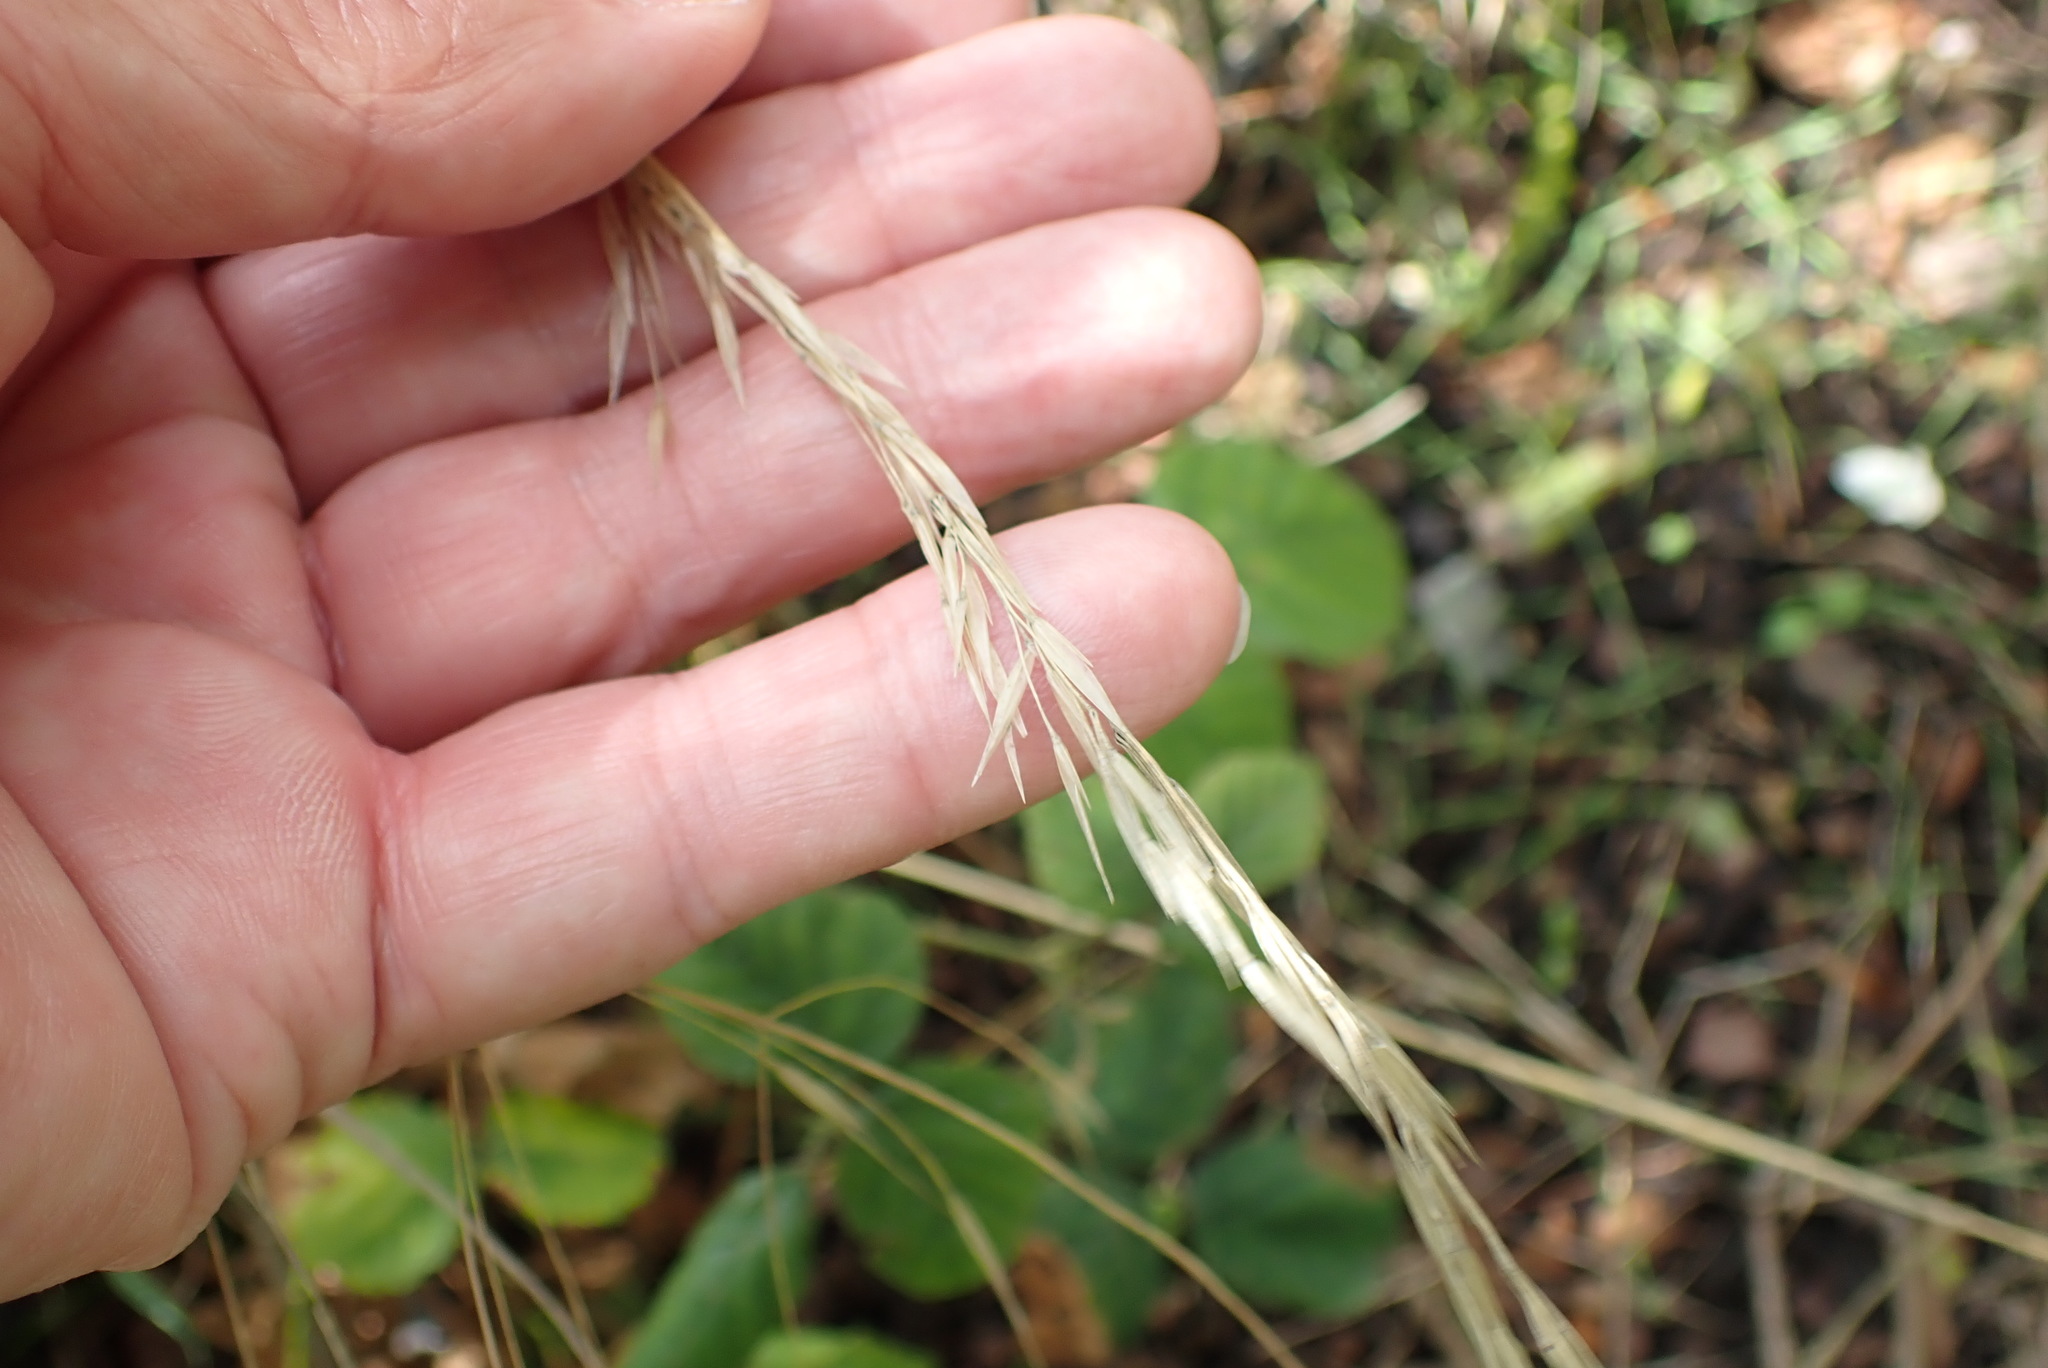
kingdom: Plantae
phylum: Tracheophyta
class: Liliopsida
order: Poales
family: Poaceae
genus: Arrhenatherum
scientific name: Arrhenatherum elatius
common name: Tall oatgrass
